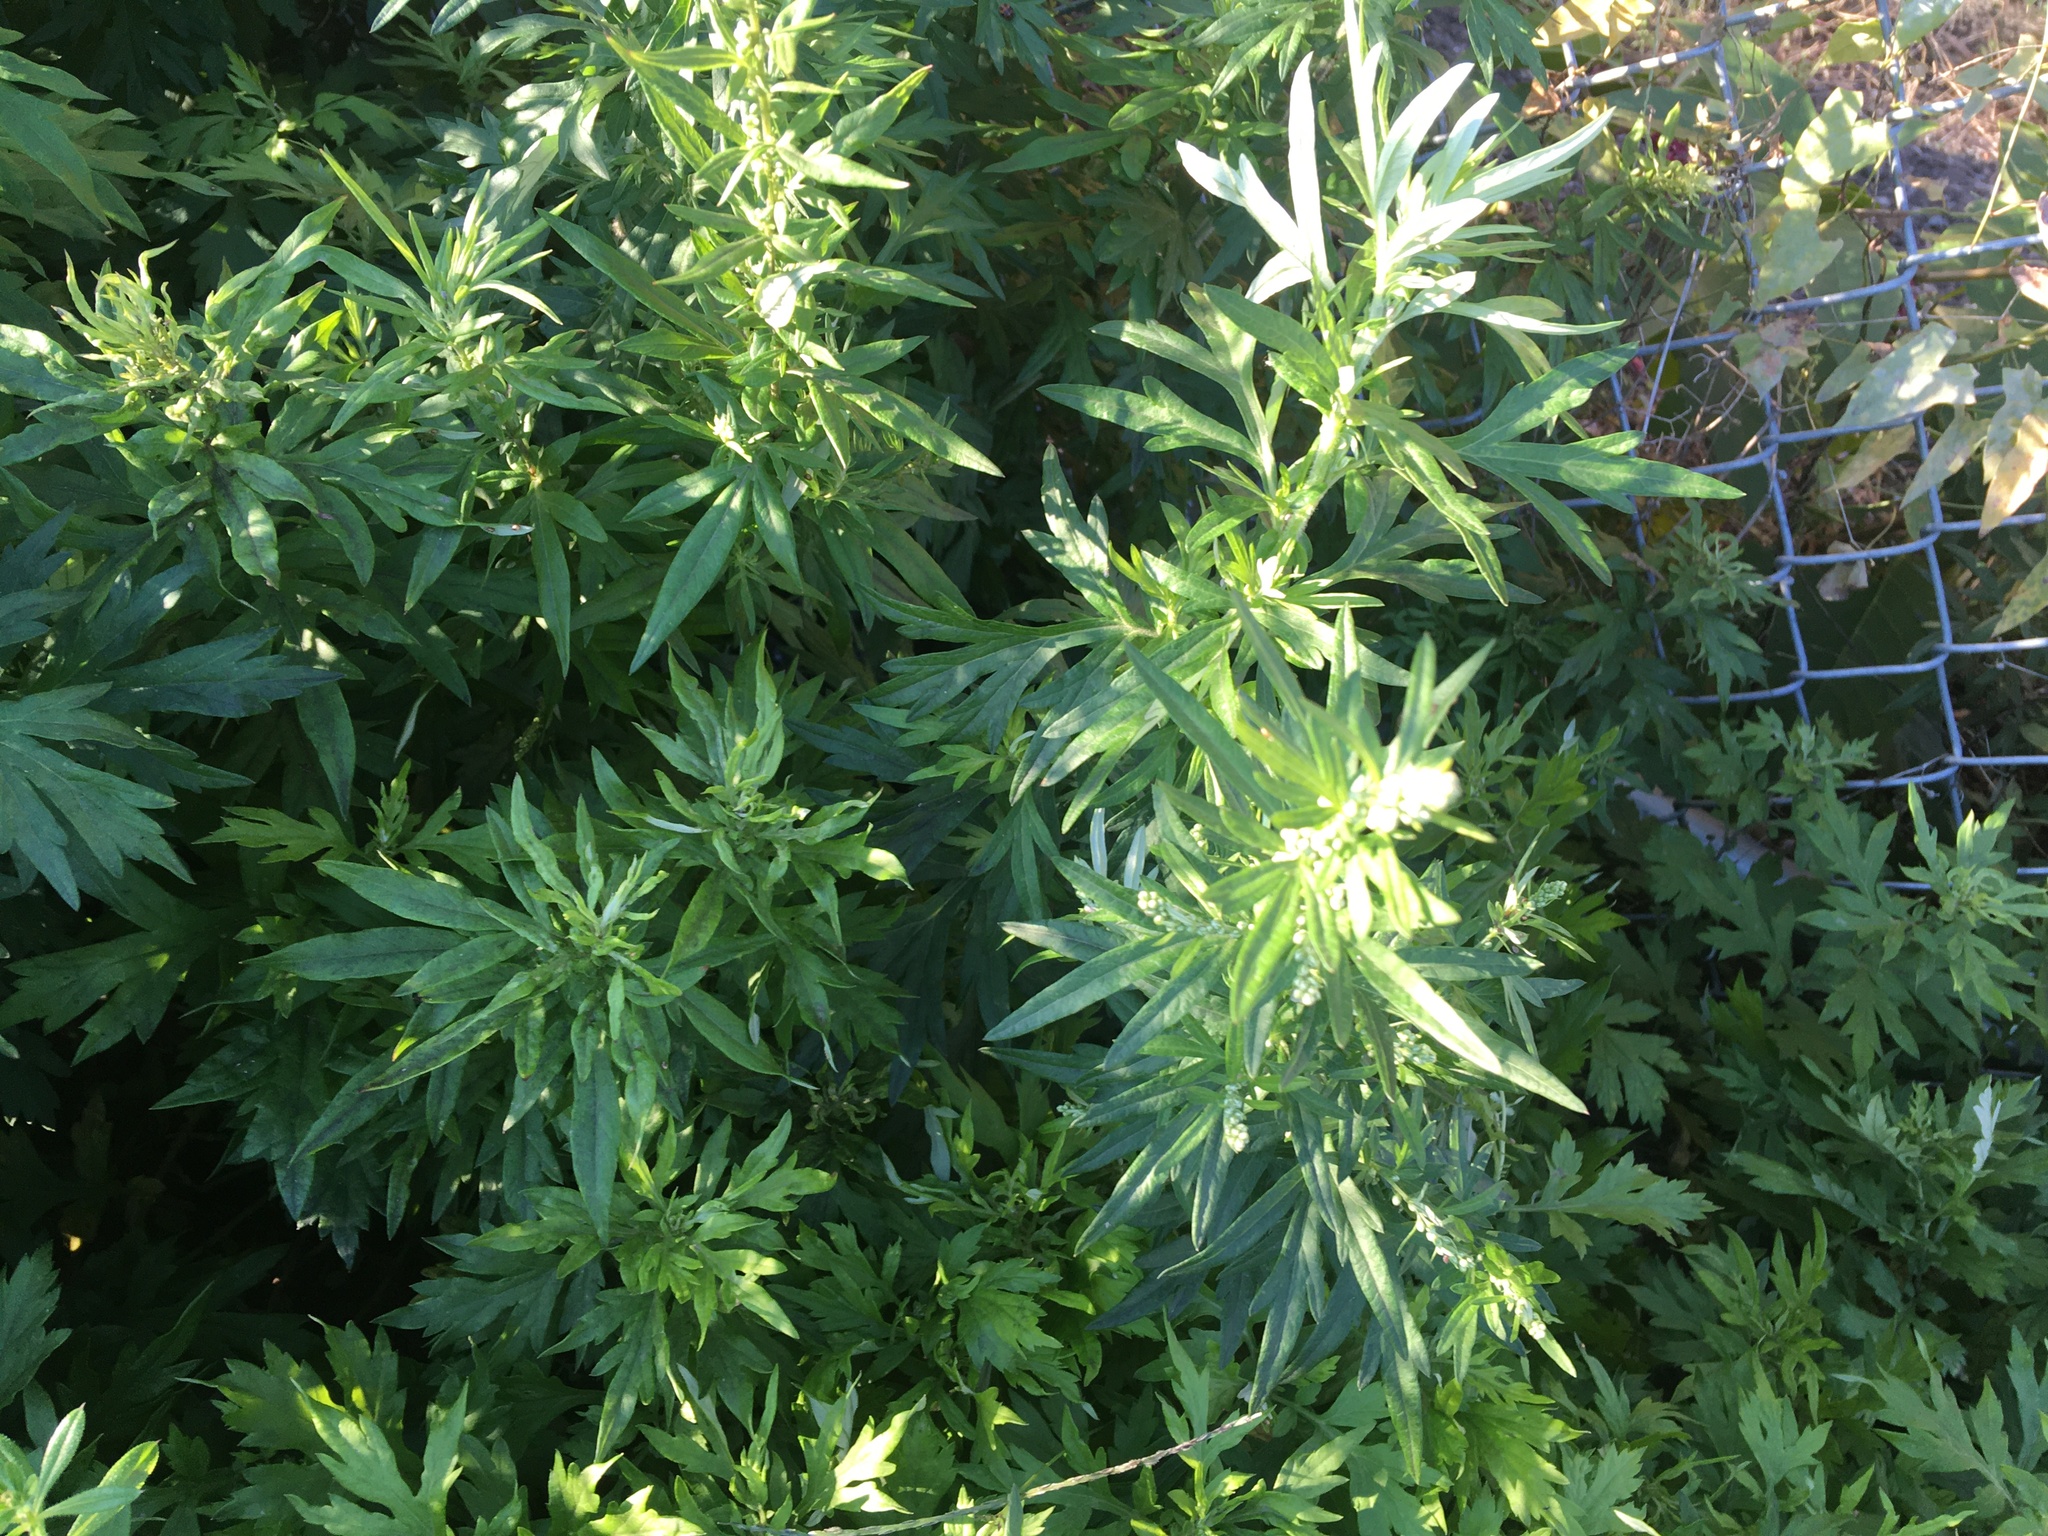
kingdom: Plantae
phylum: Tracheophyta
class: Magnoliopsida
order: Asterales
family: Asteraceae
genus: Artemisia
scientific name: Artemisia vulgaris
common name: Mugwort
